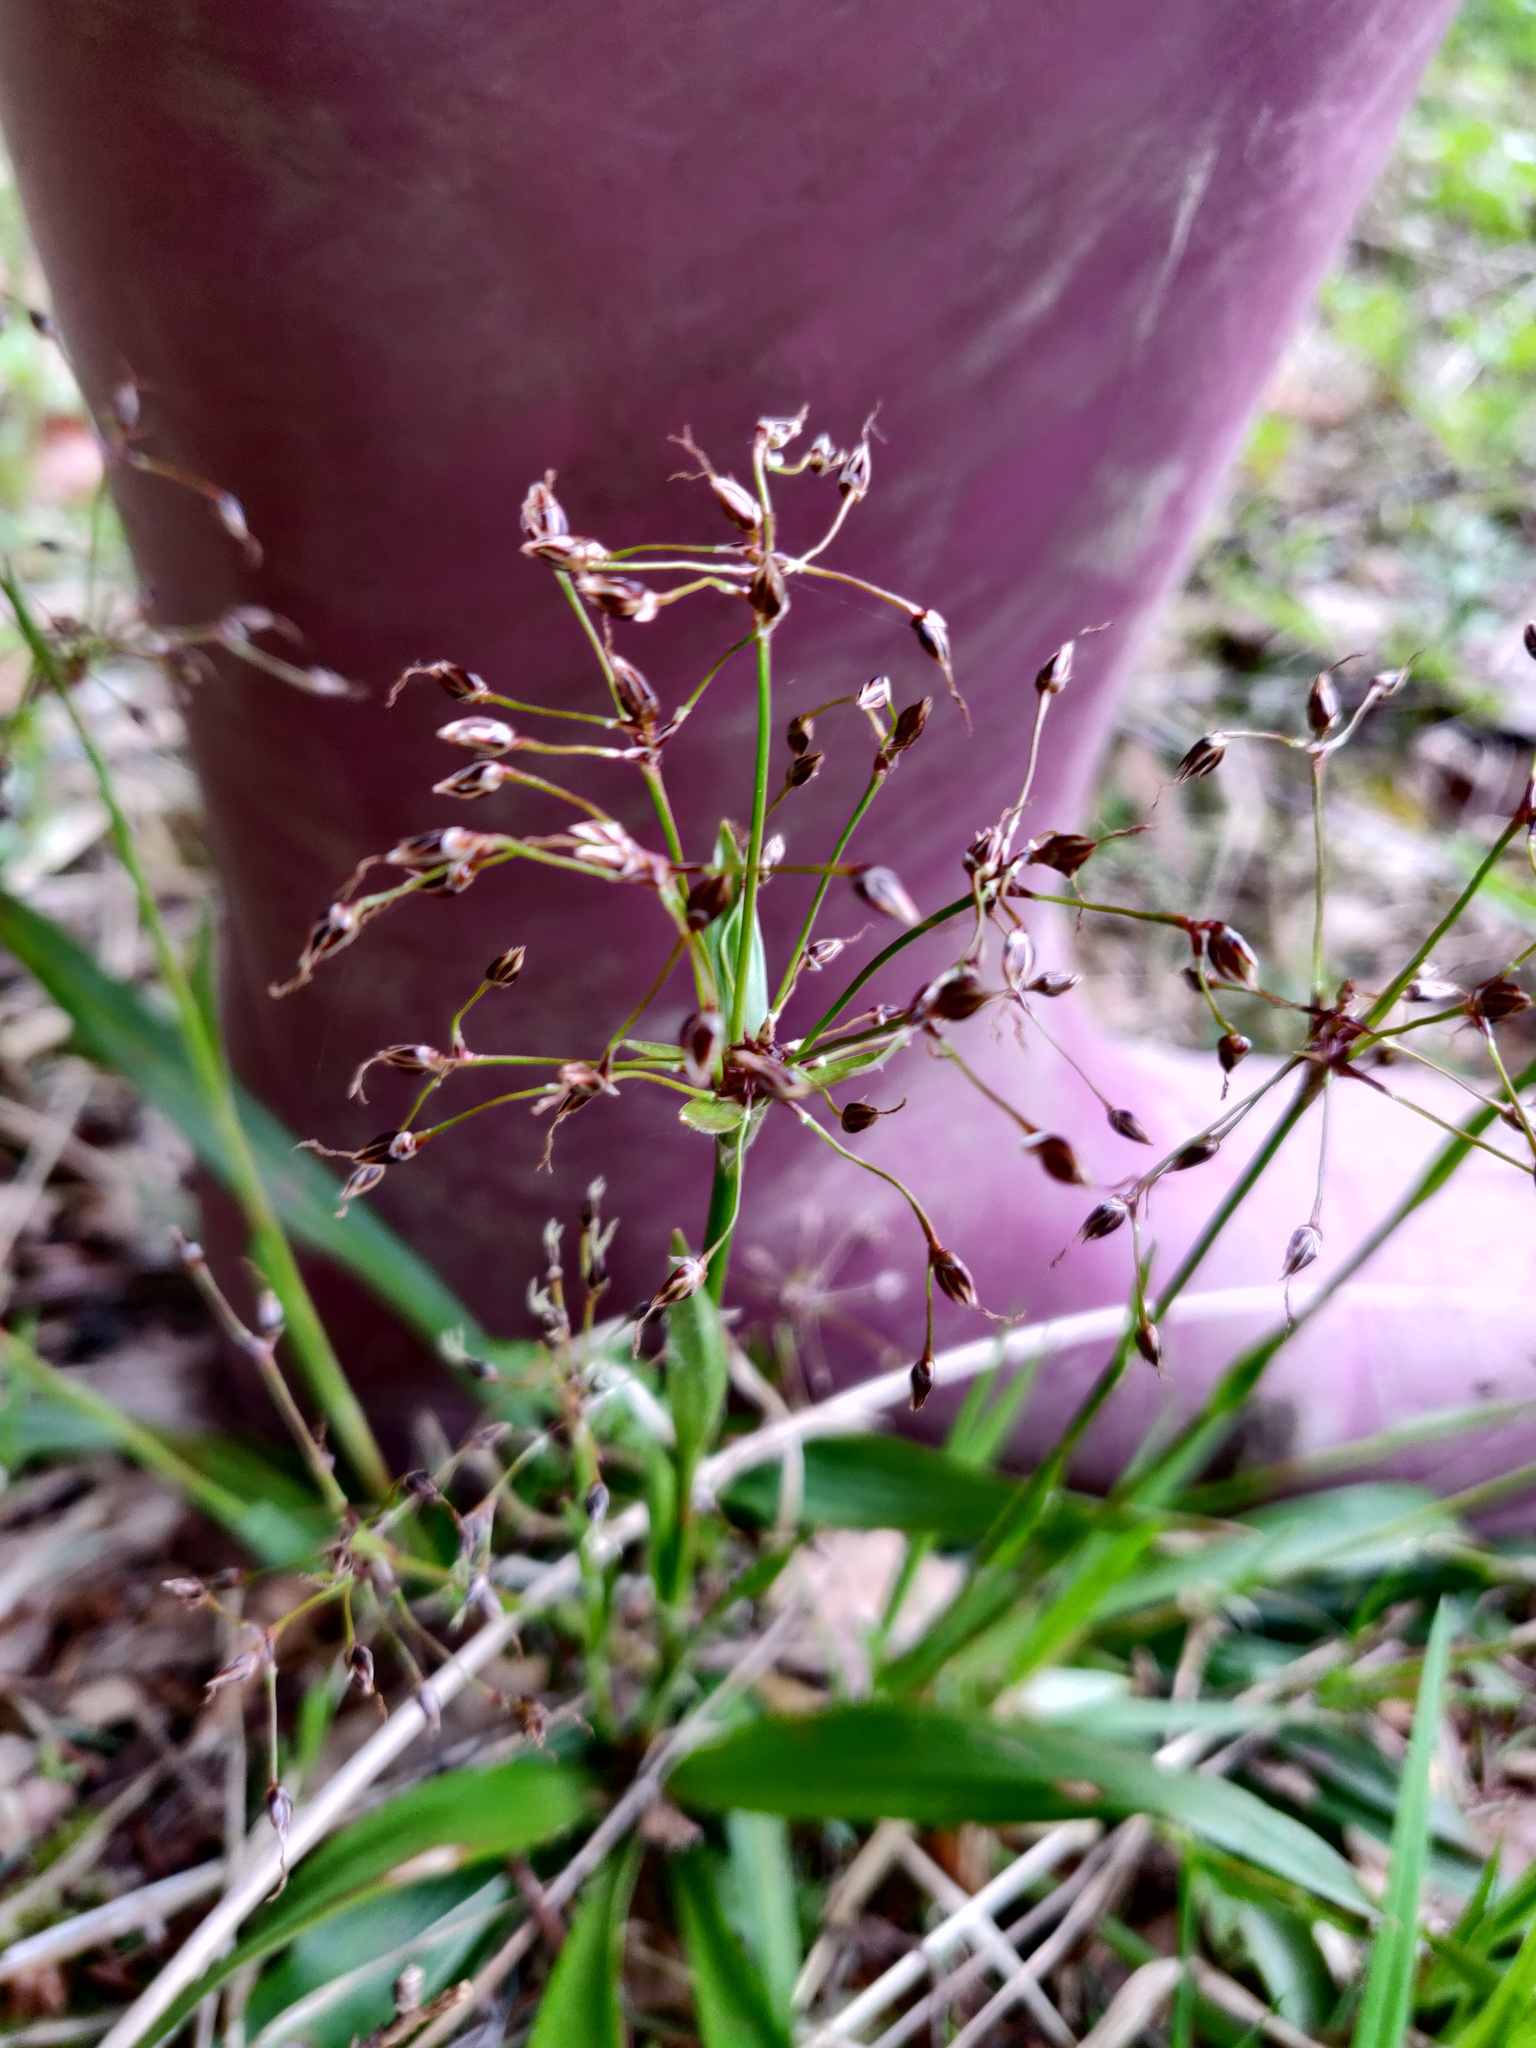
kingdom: Plantae
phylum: Tracheophyta
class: Liliopsida
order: Poales
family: Juncaceae
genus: Luzula
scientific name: Luzula pilosa
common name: Hairy wood-rush
